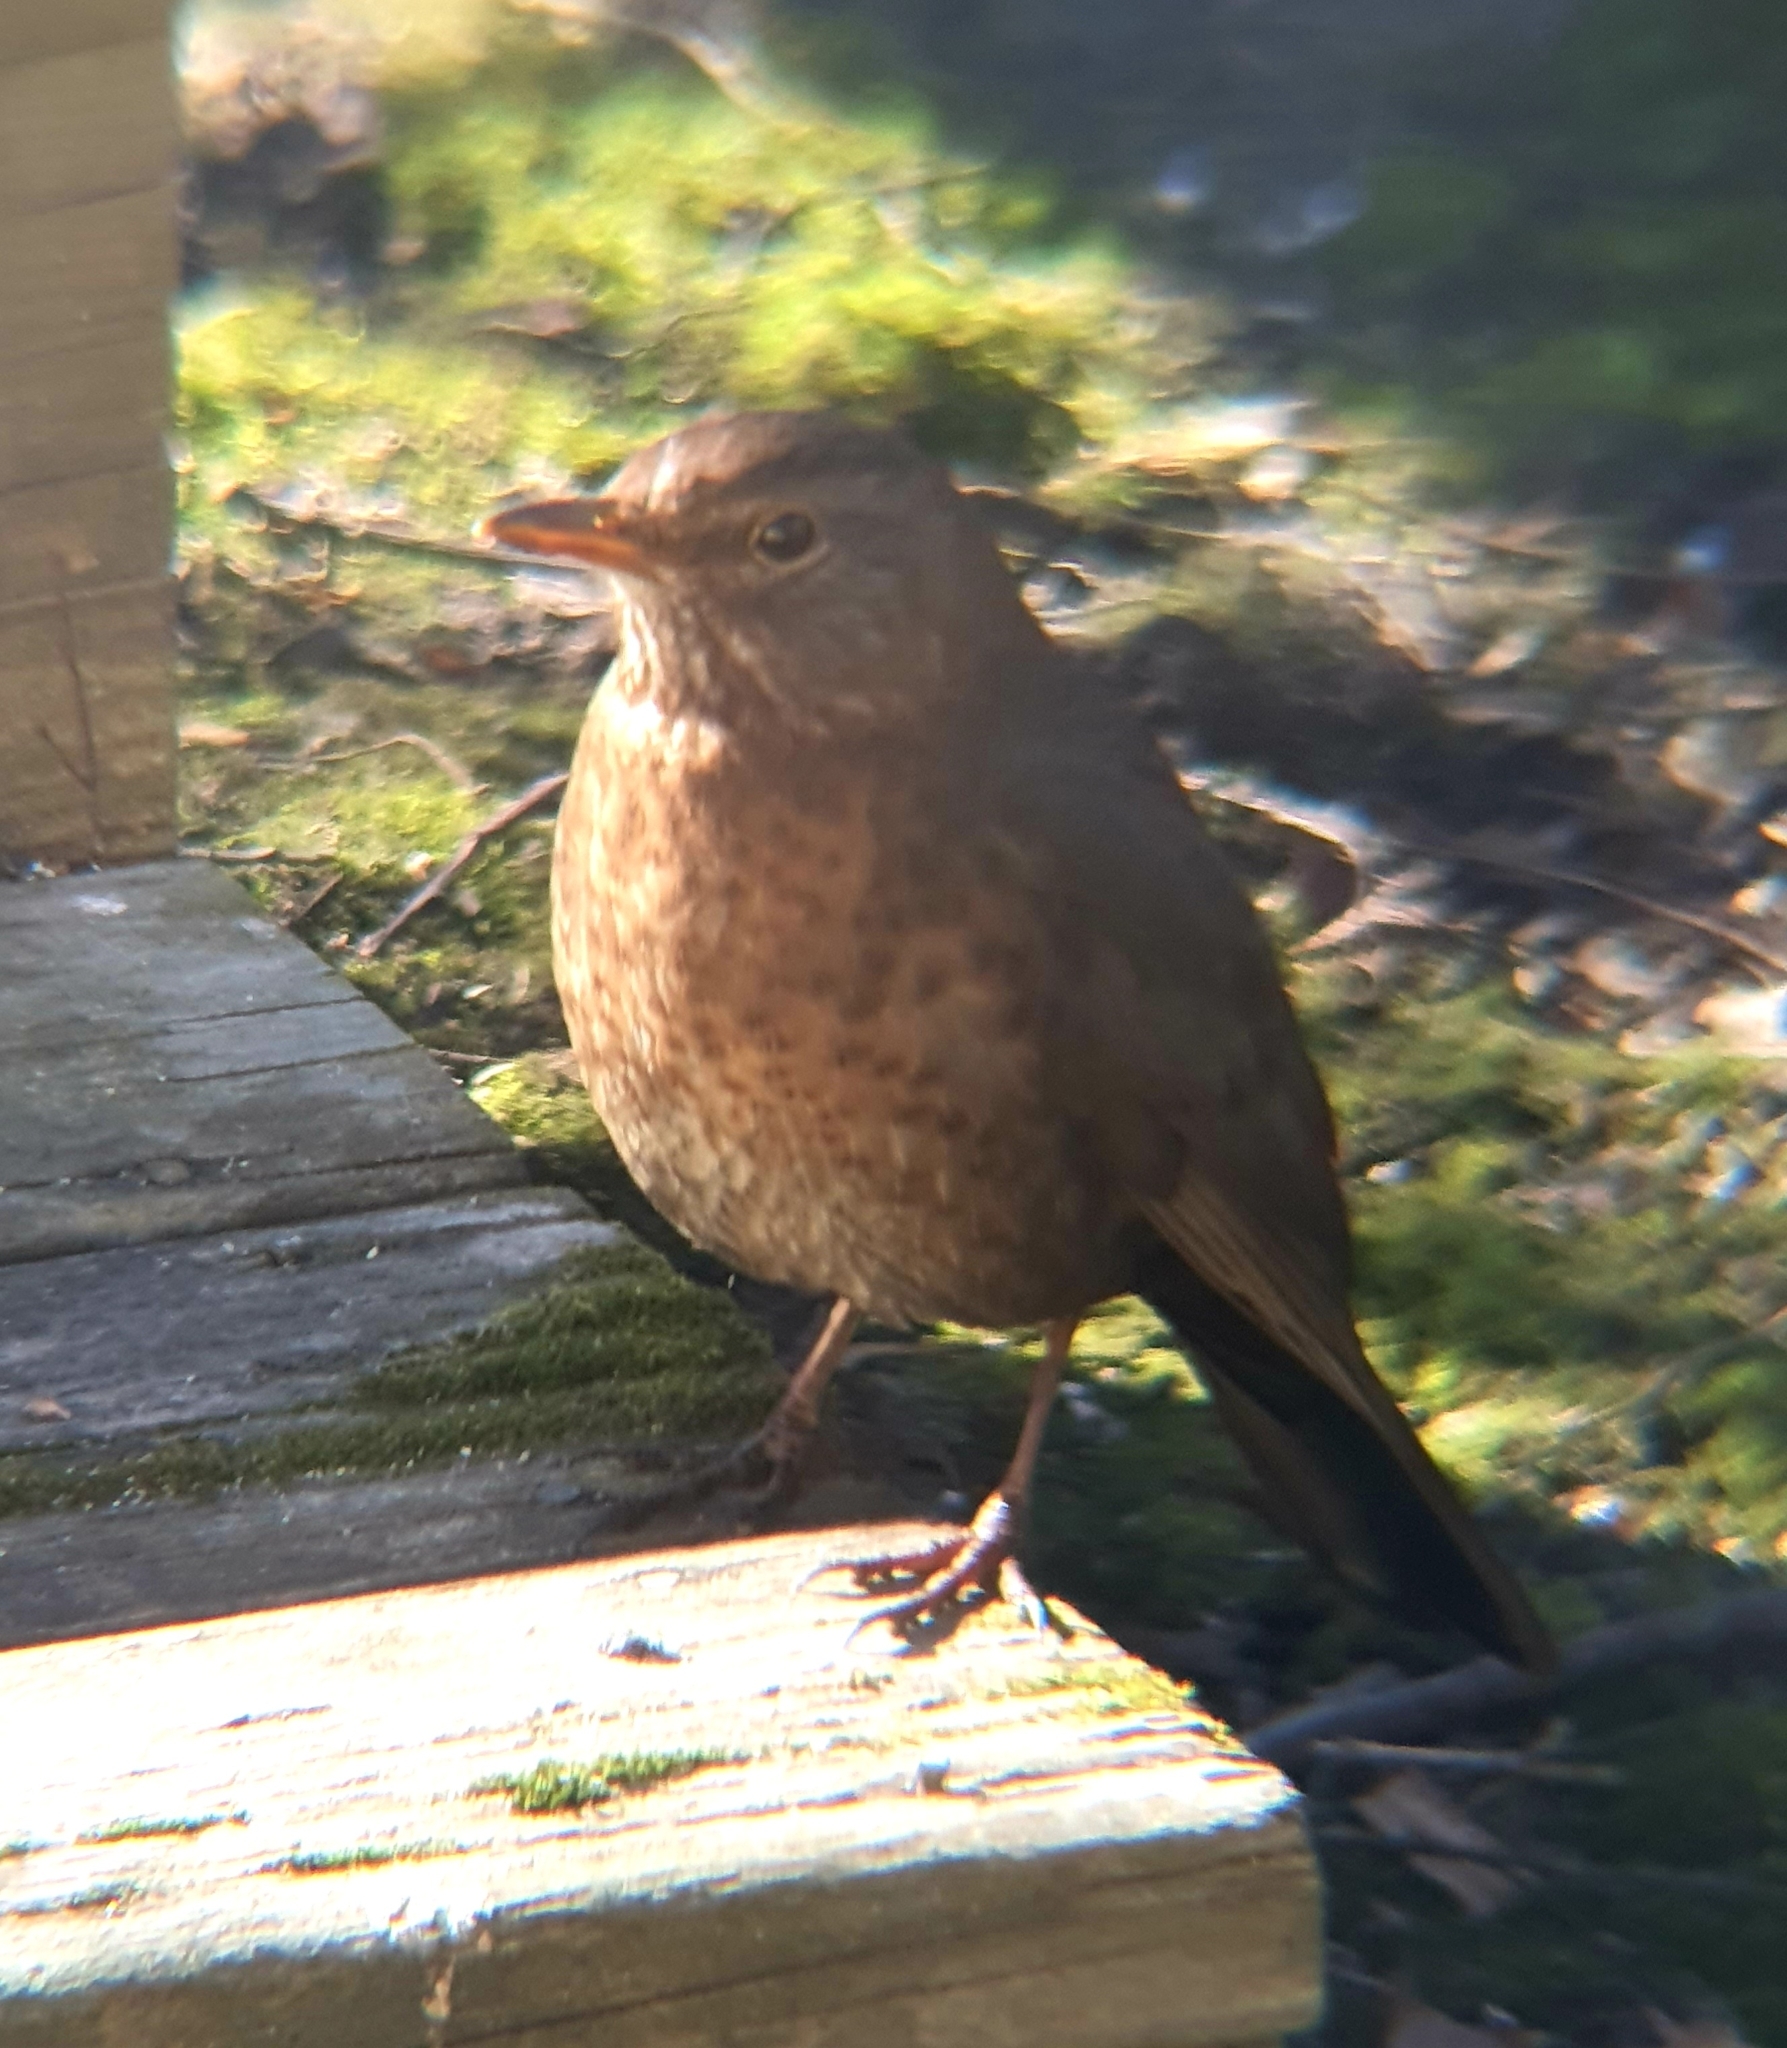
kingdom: Animalia
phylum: Chordata
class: Aves
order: Passeriformes
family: Turdidae
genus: Turdus
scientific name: Turdus merula
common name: Common blackbird
